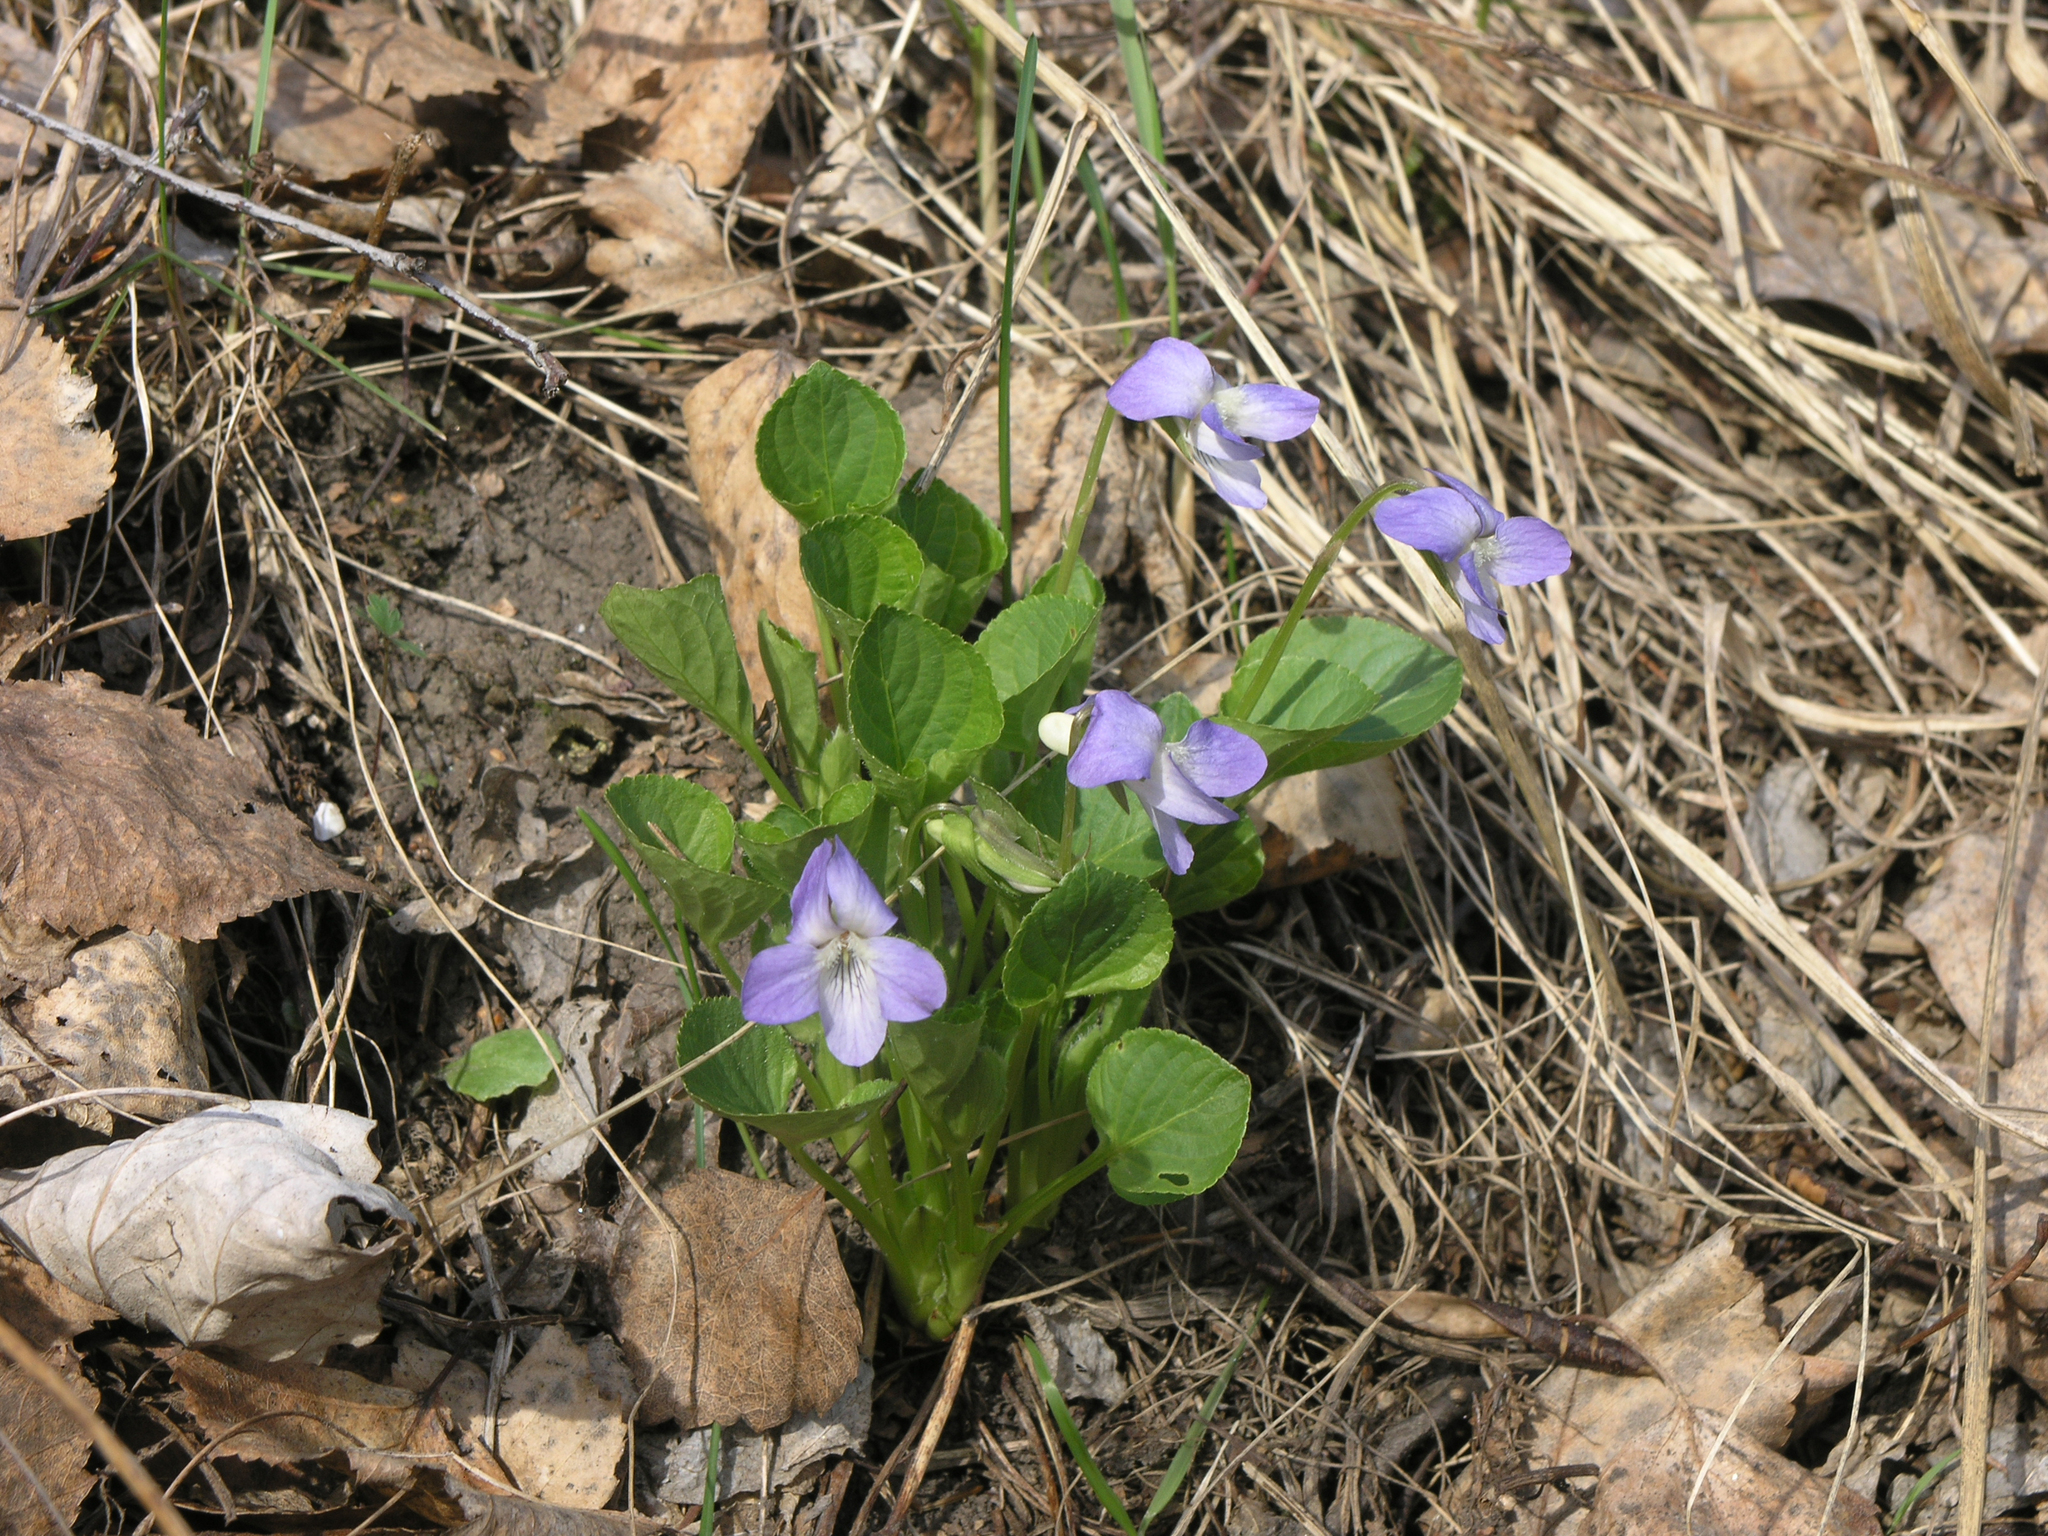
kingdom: Plantae
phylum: Tracheophyta
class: Magnoliopsida
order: Malpighiales
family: Violaceae
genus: Viola
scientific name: Viola mirabilis
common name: Wonder violet
